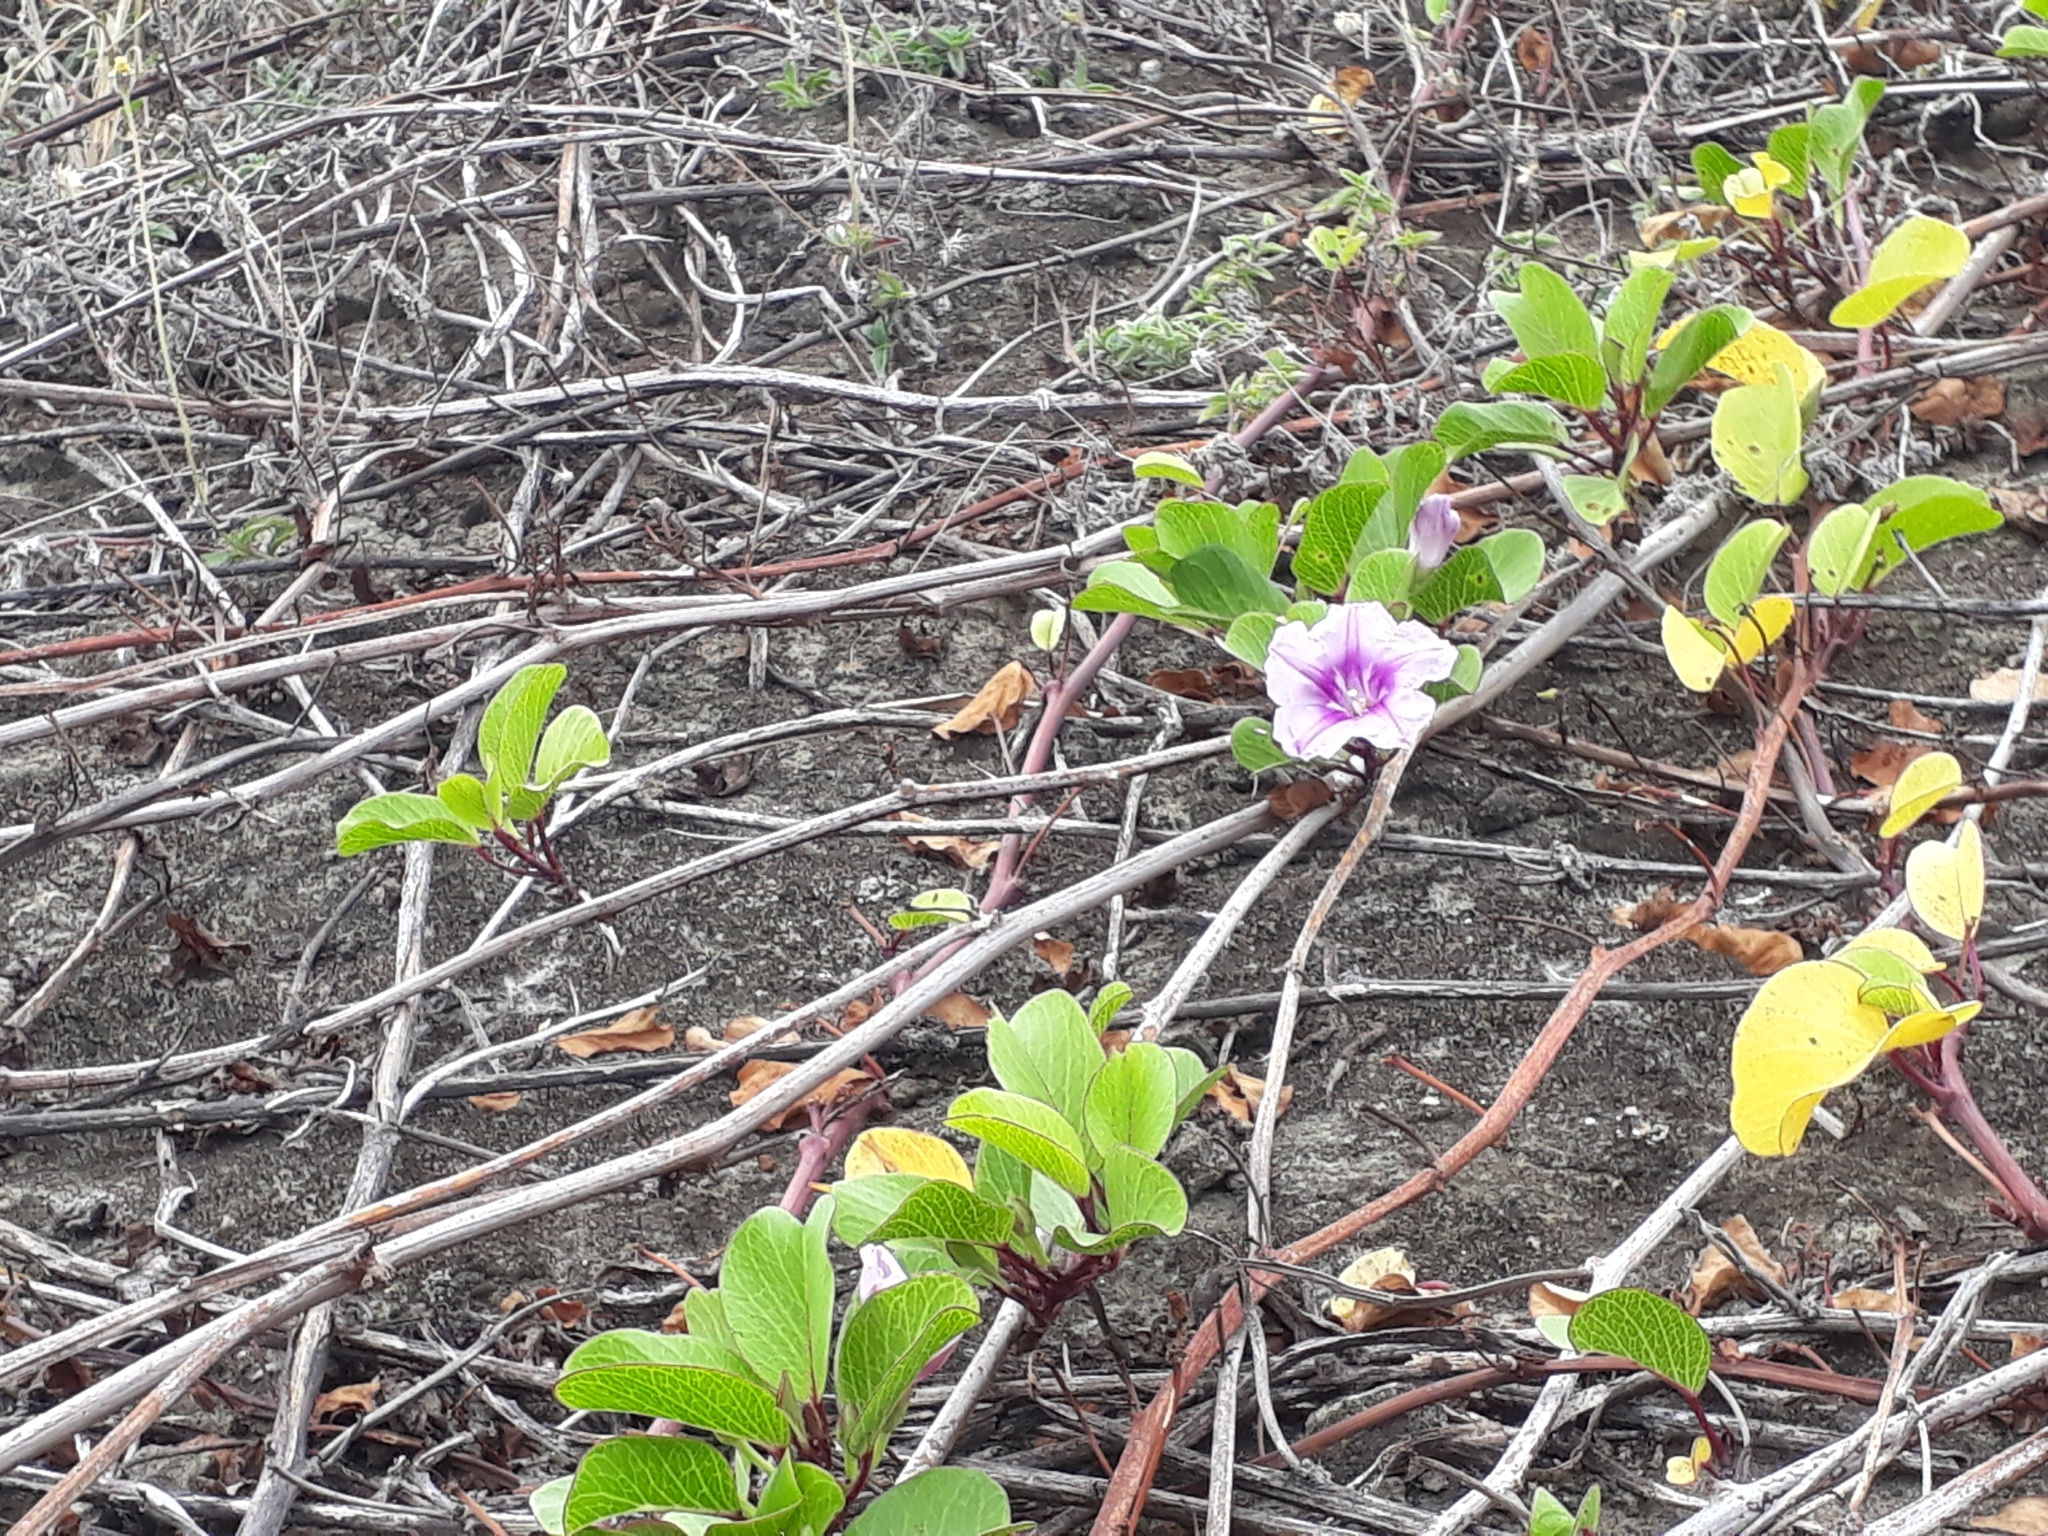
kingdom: Plantae
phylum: Tracheophyta
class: Magnoliopsida
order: Solanales
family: Convolvulaceae
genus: Ipomoea
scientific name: Ipomoea pes-caprae
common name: Beach morning glory
